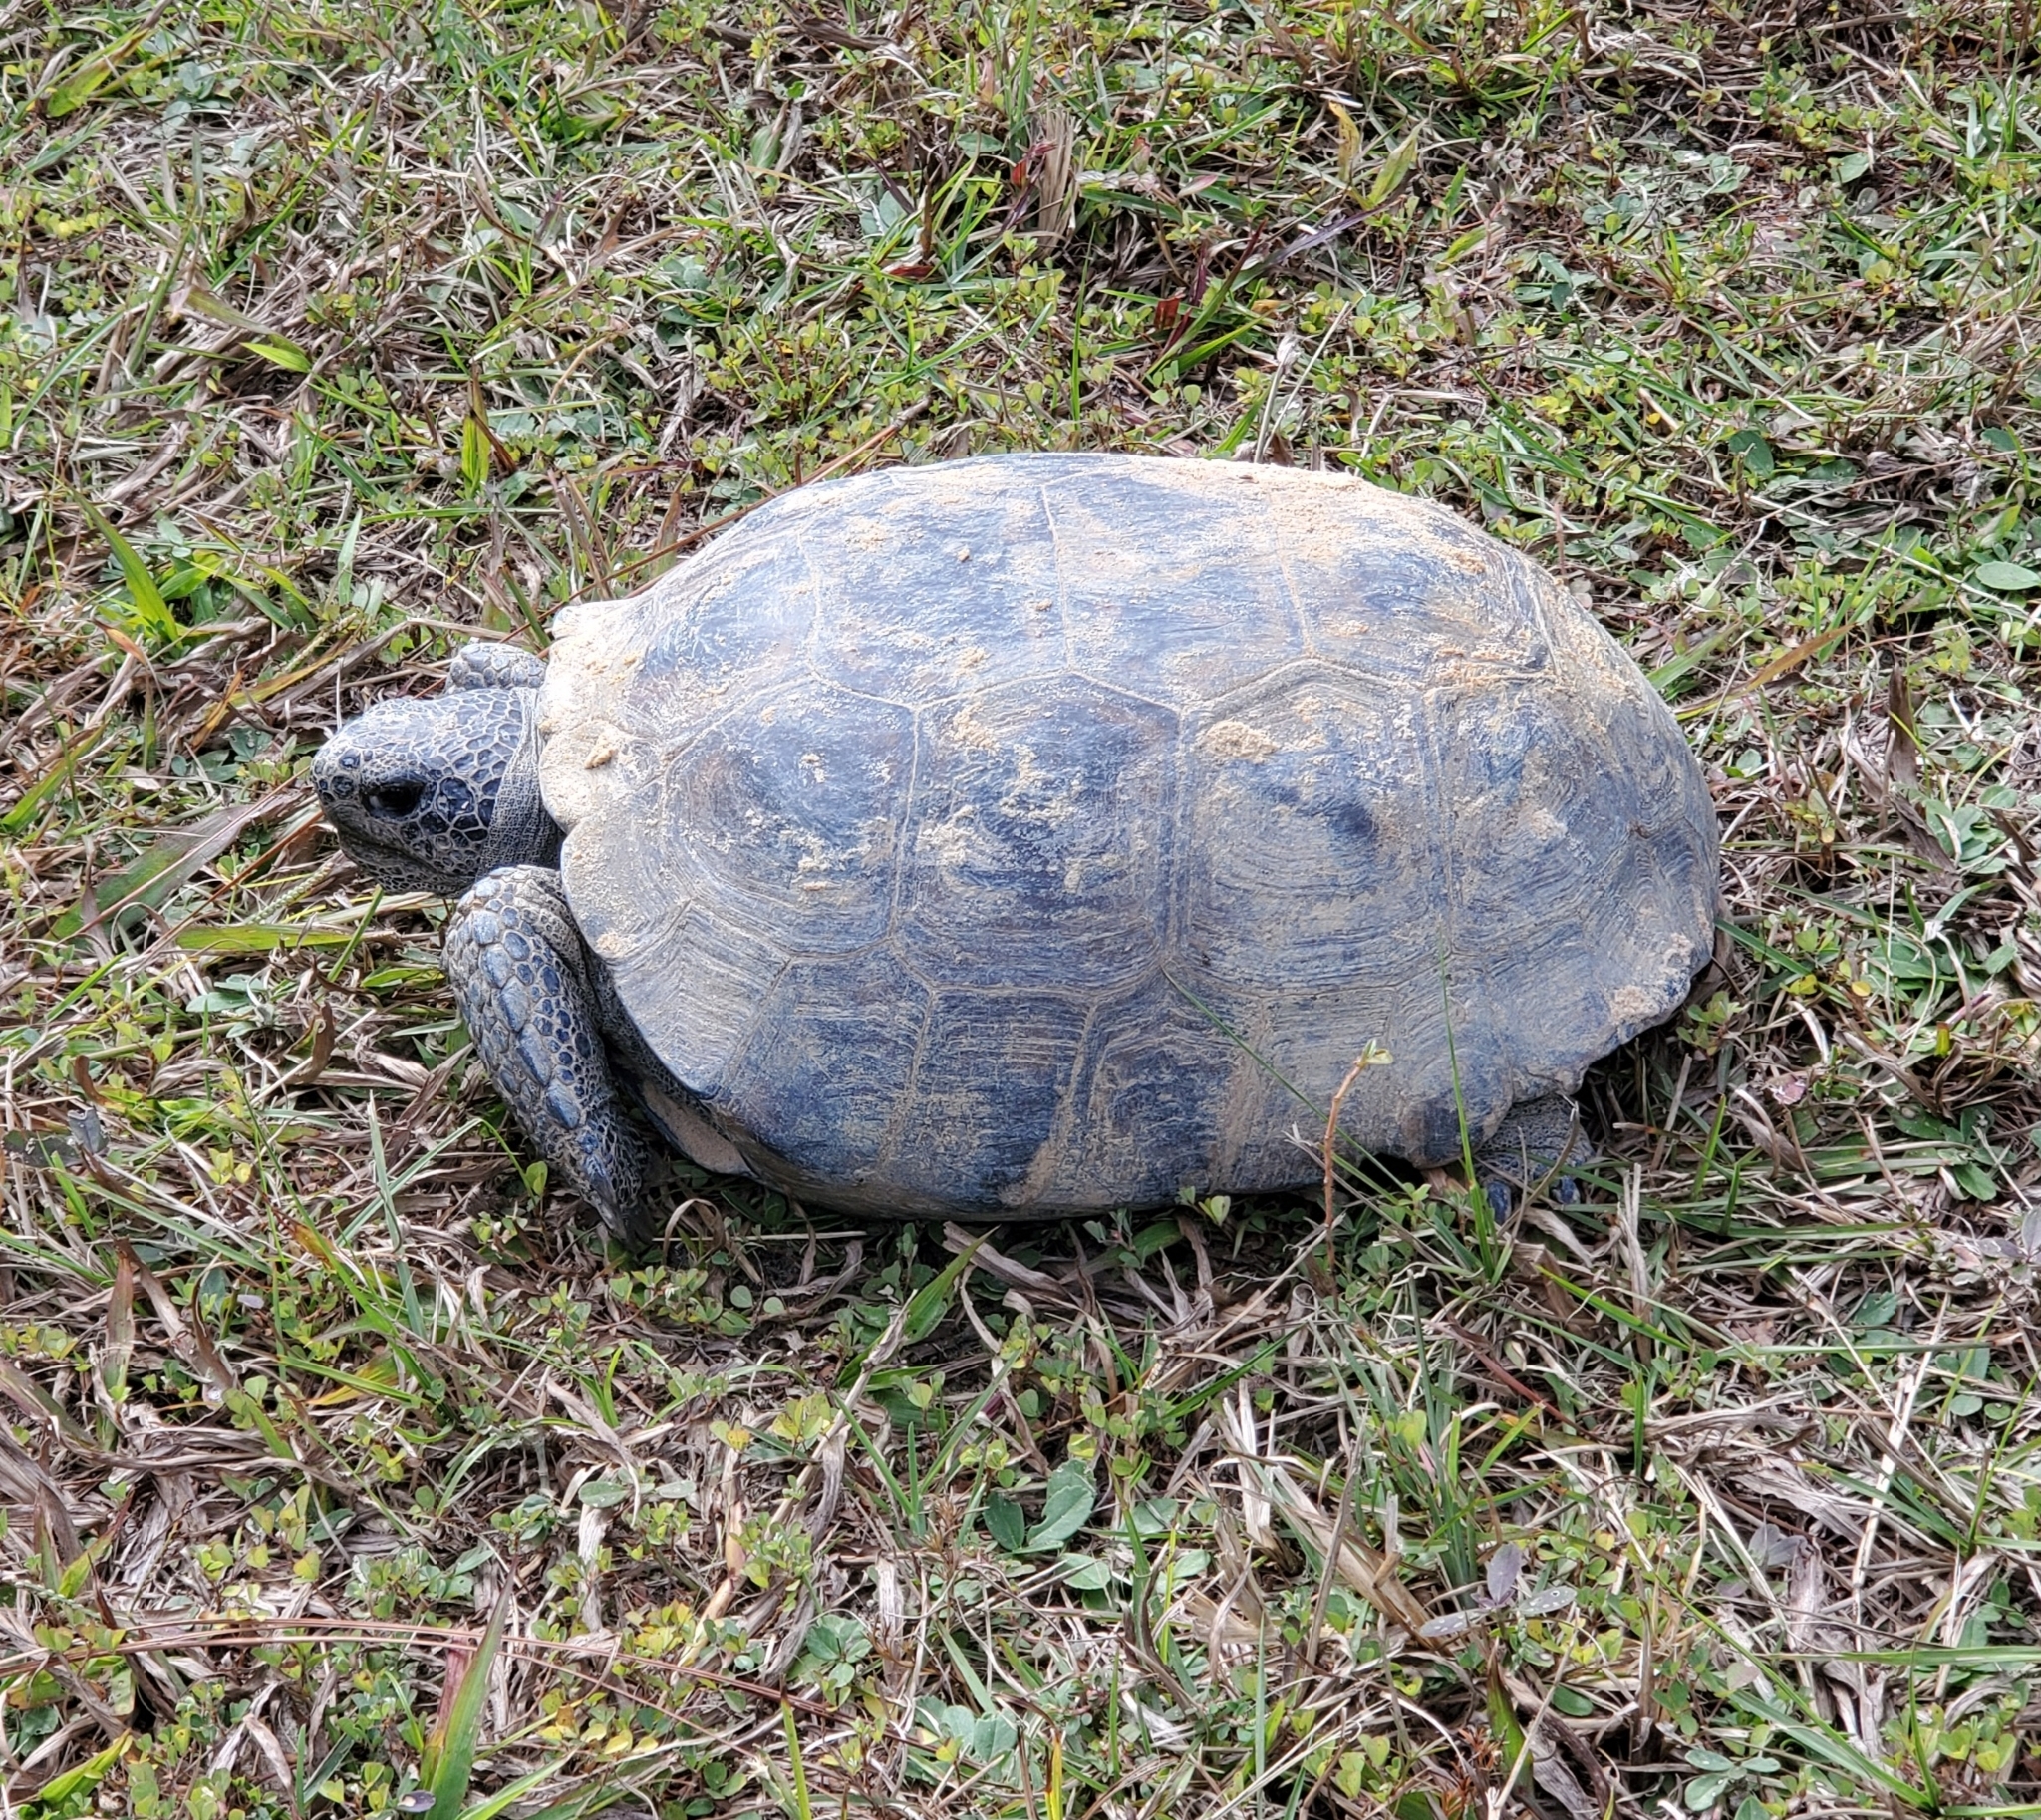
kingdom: Animalia
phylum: Chordata
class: Testudines
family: Testudinidae
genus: Gopherus
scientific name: Gopherus polyphemus
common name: Florida gopher tortoise
